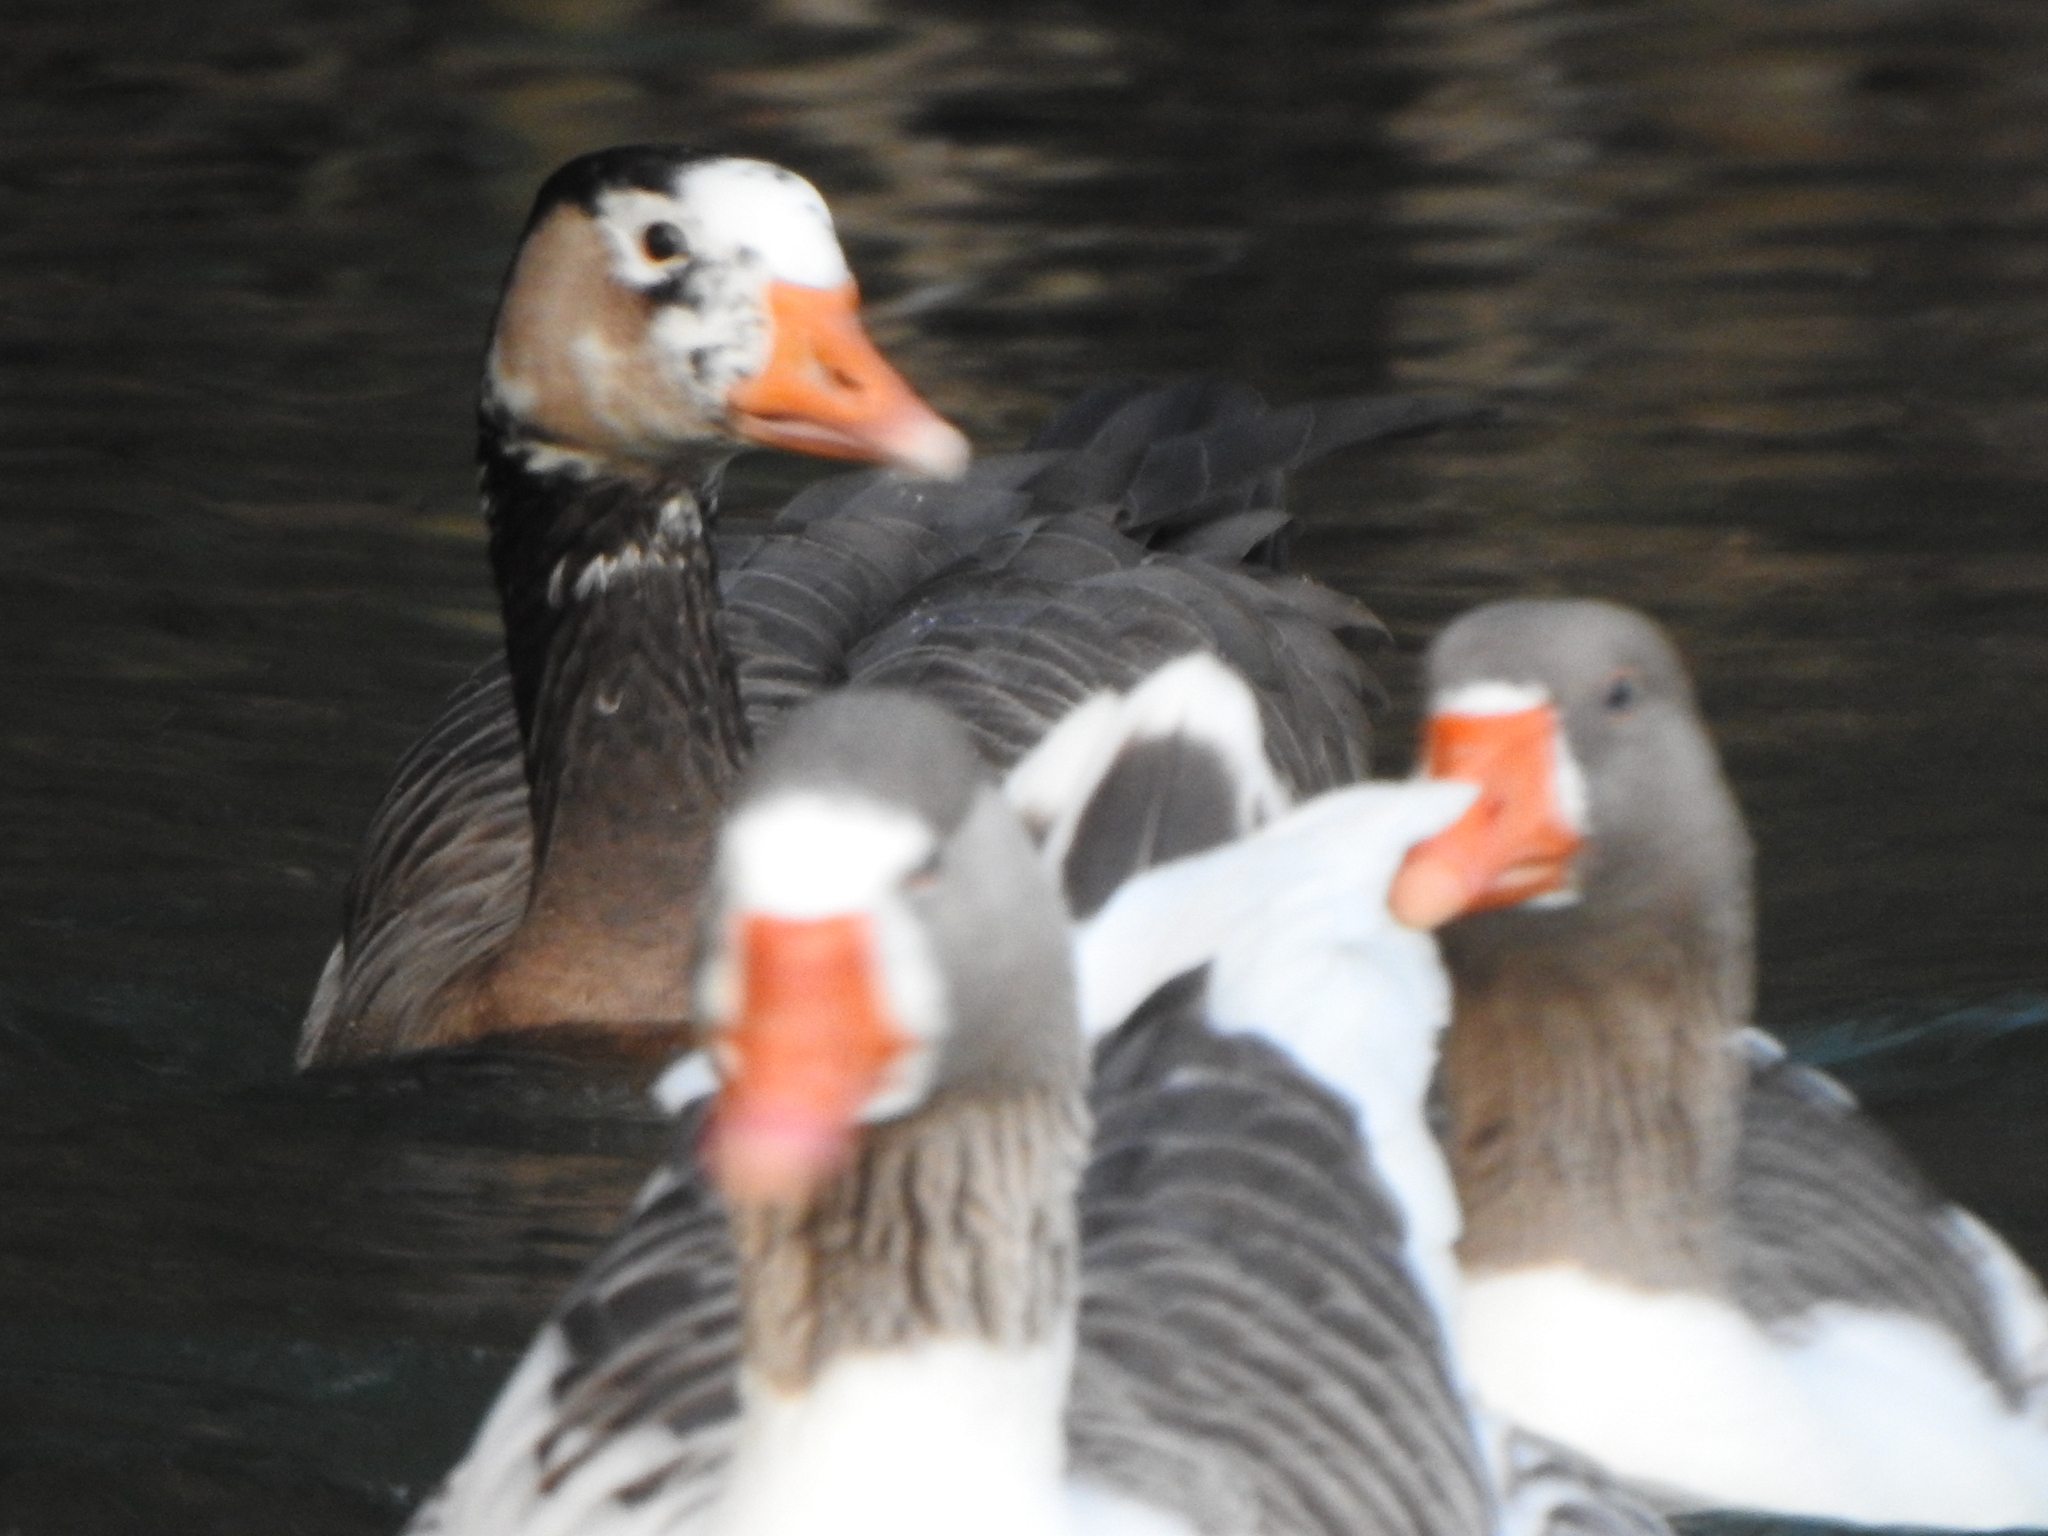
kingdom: Animalia
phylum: Chordata
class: Aves
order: Anseriformes
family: Anatidae
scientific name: Anatidae
